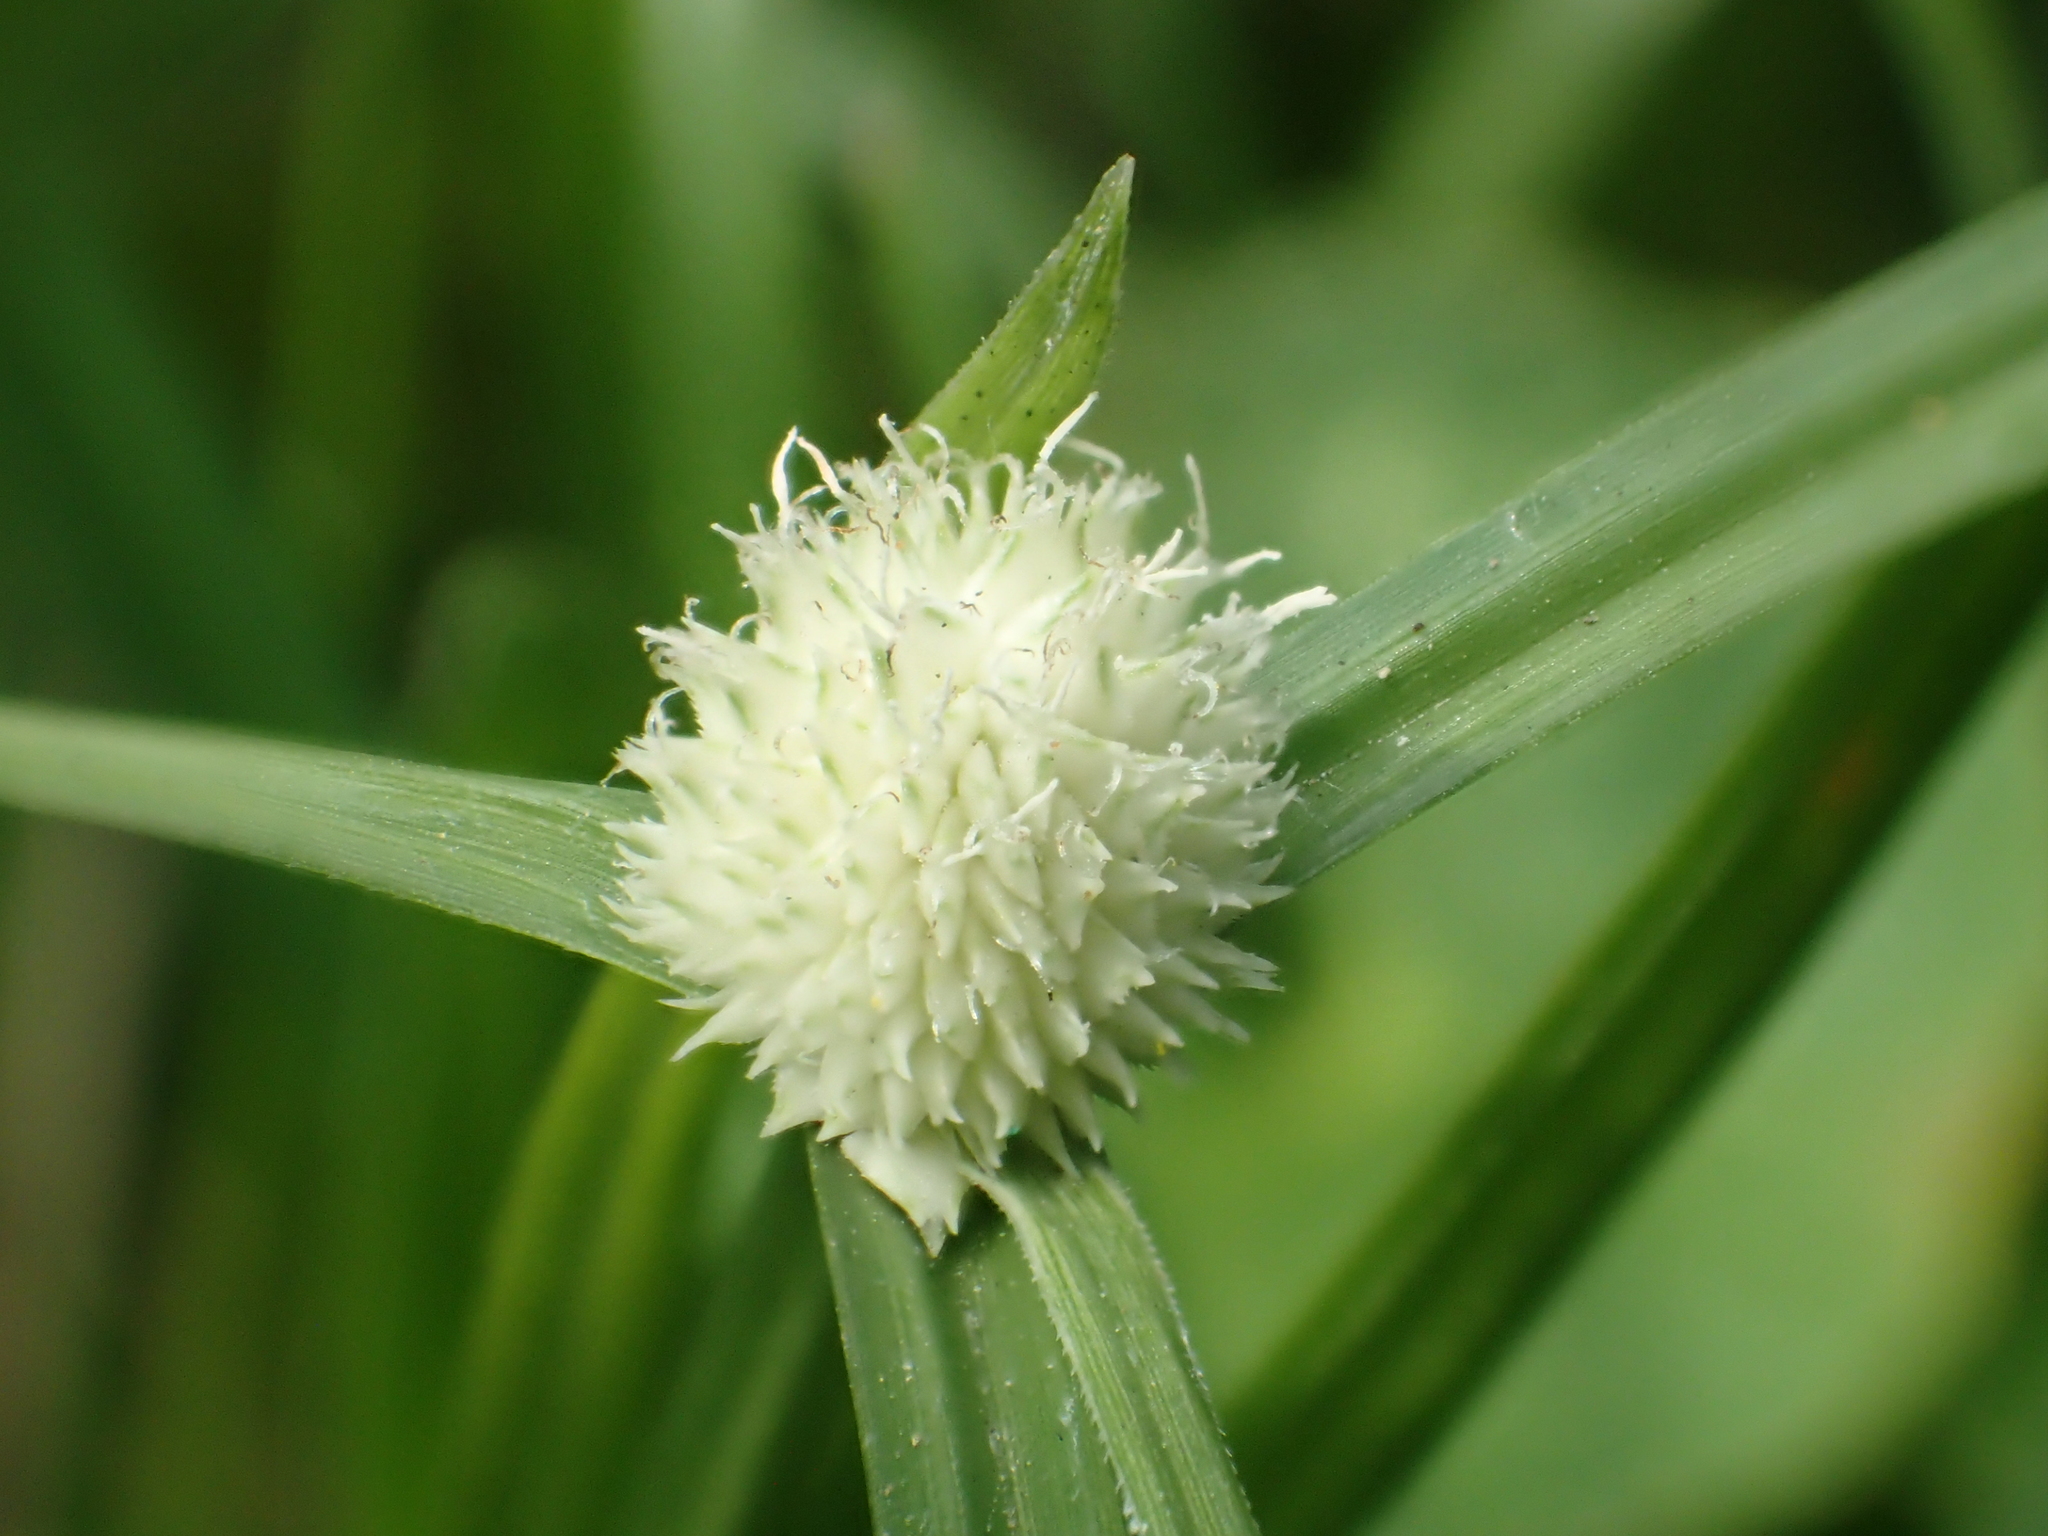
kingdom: Plantae
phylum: Tracheophyta
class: Liliopsida
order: Poales
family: Cyperaceae
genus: Cyperus
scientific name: Cyperus mindorensis
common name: Flatsedge
